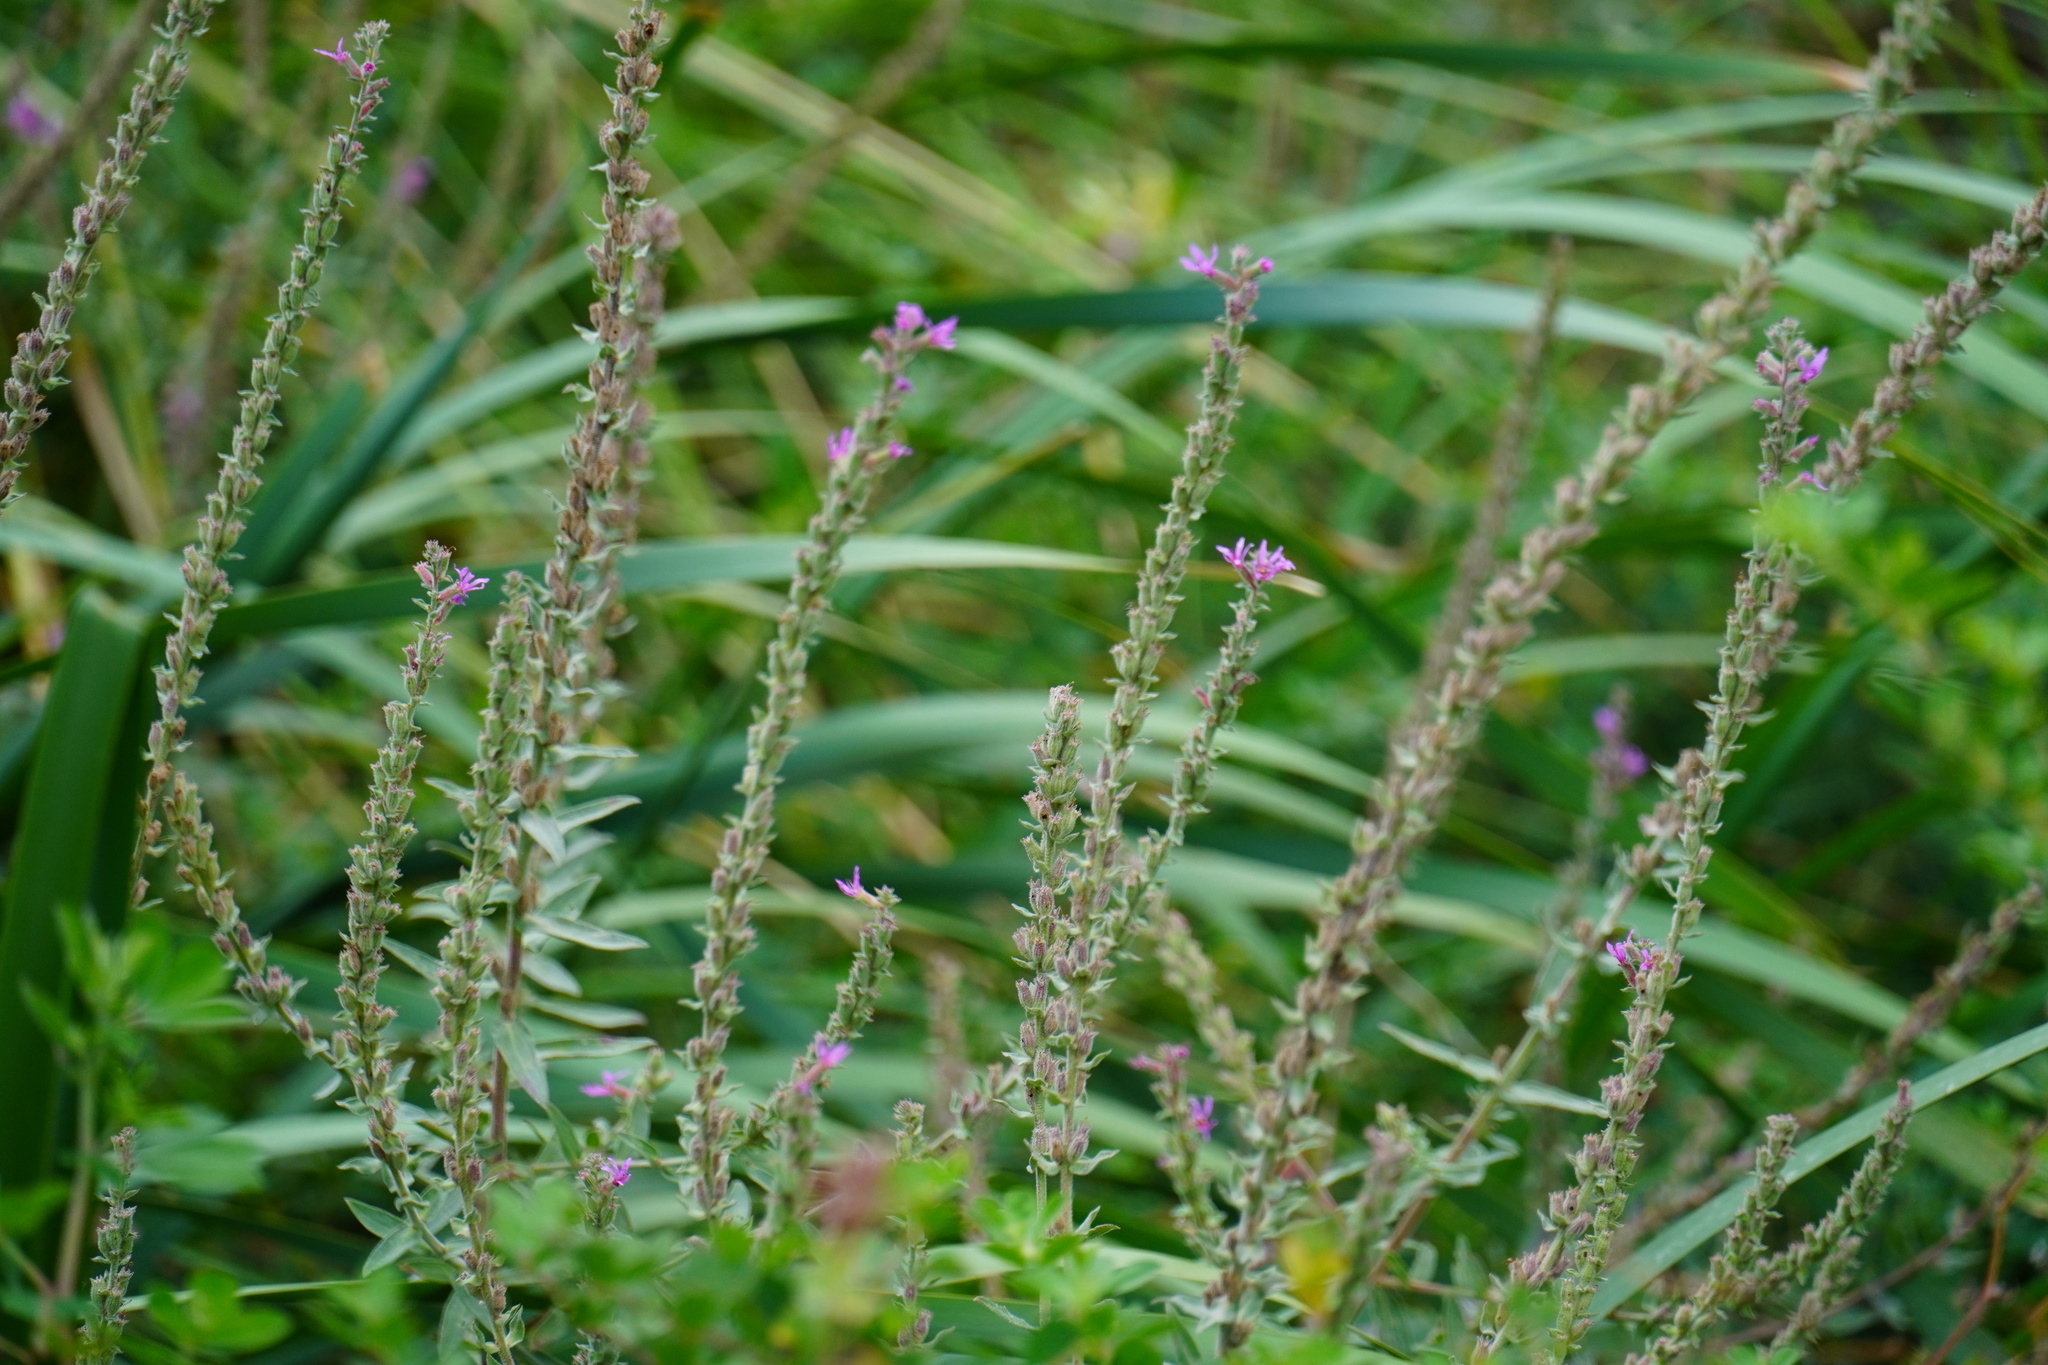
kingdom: Plantae
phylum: Tracheophyta
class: Magnoliopsida
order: Myrtales
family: Lythraceae
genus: Lythrum
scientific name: Lythrum salicaria
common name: Purple loosestrife
